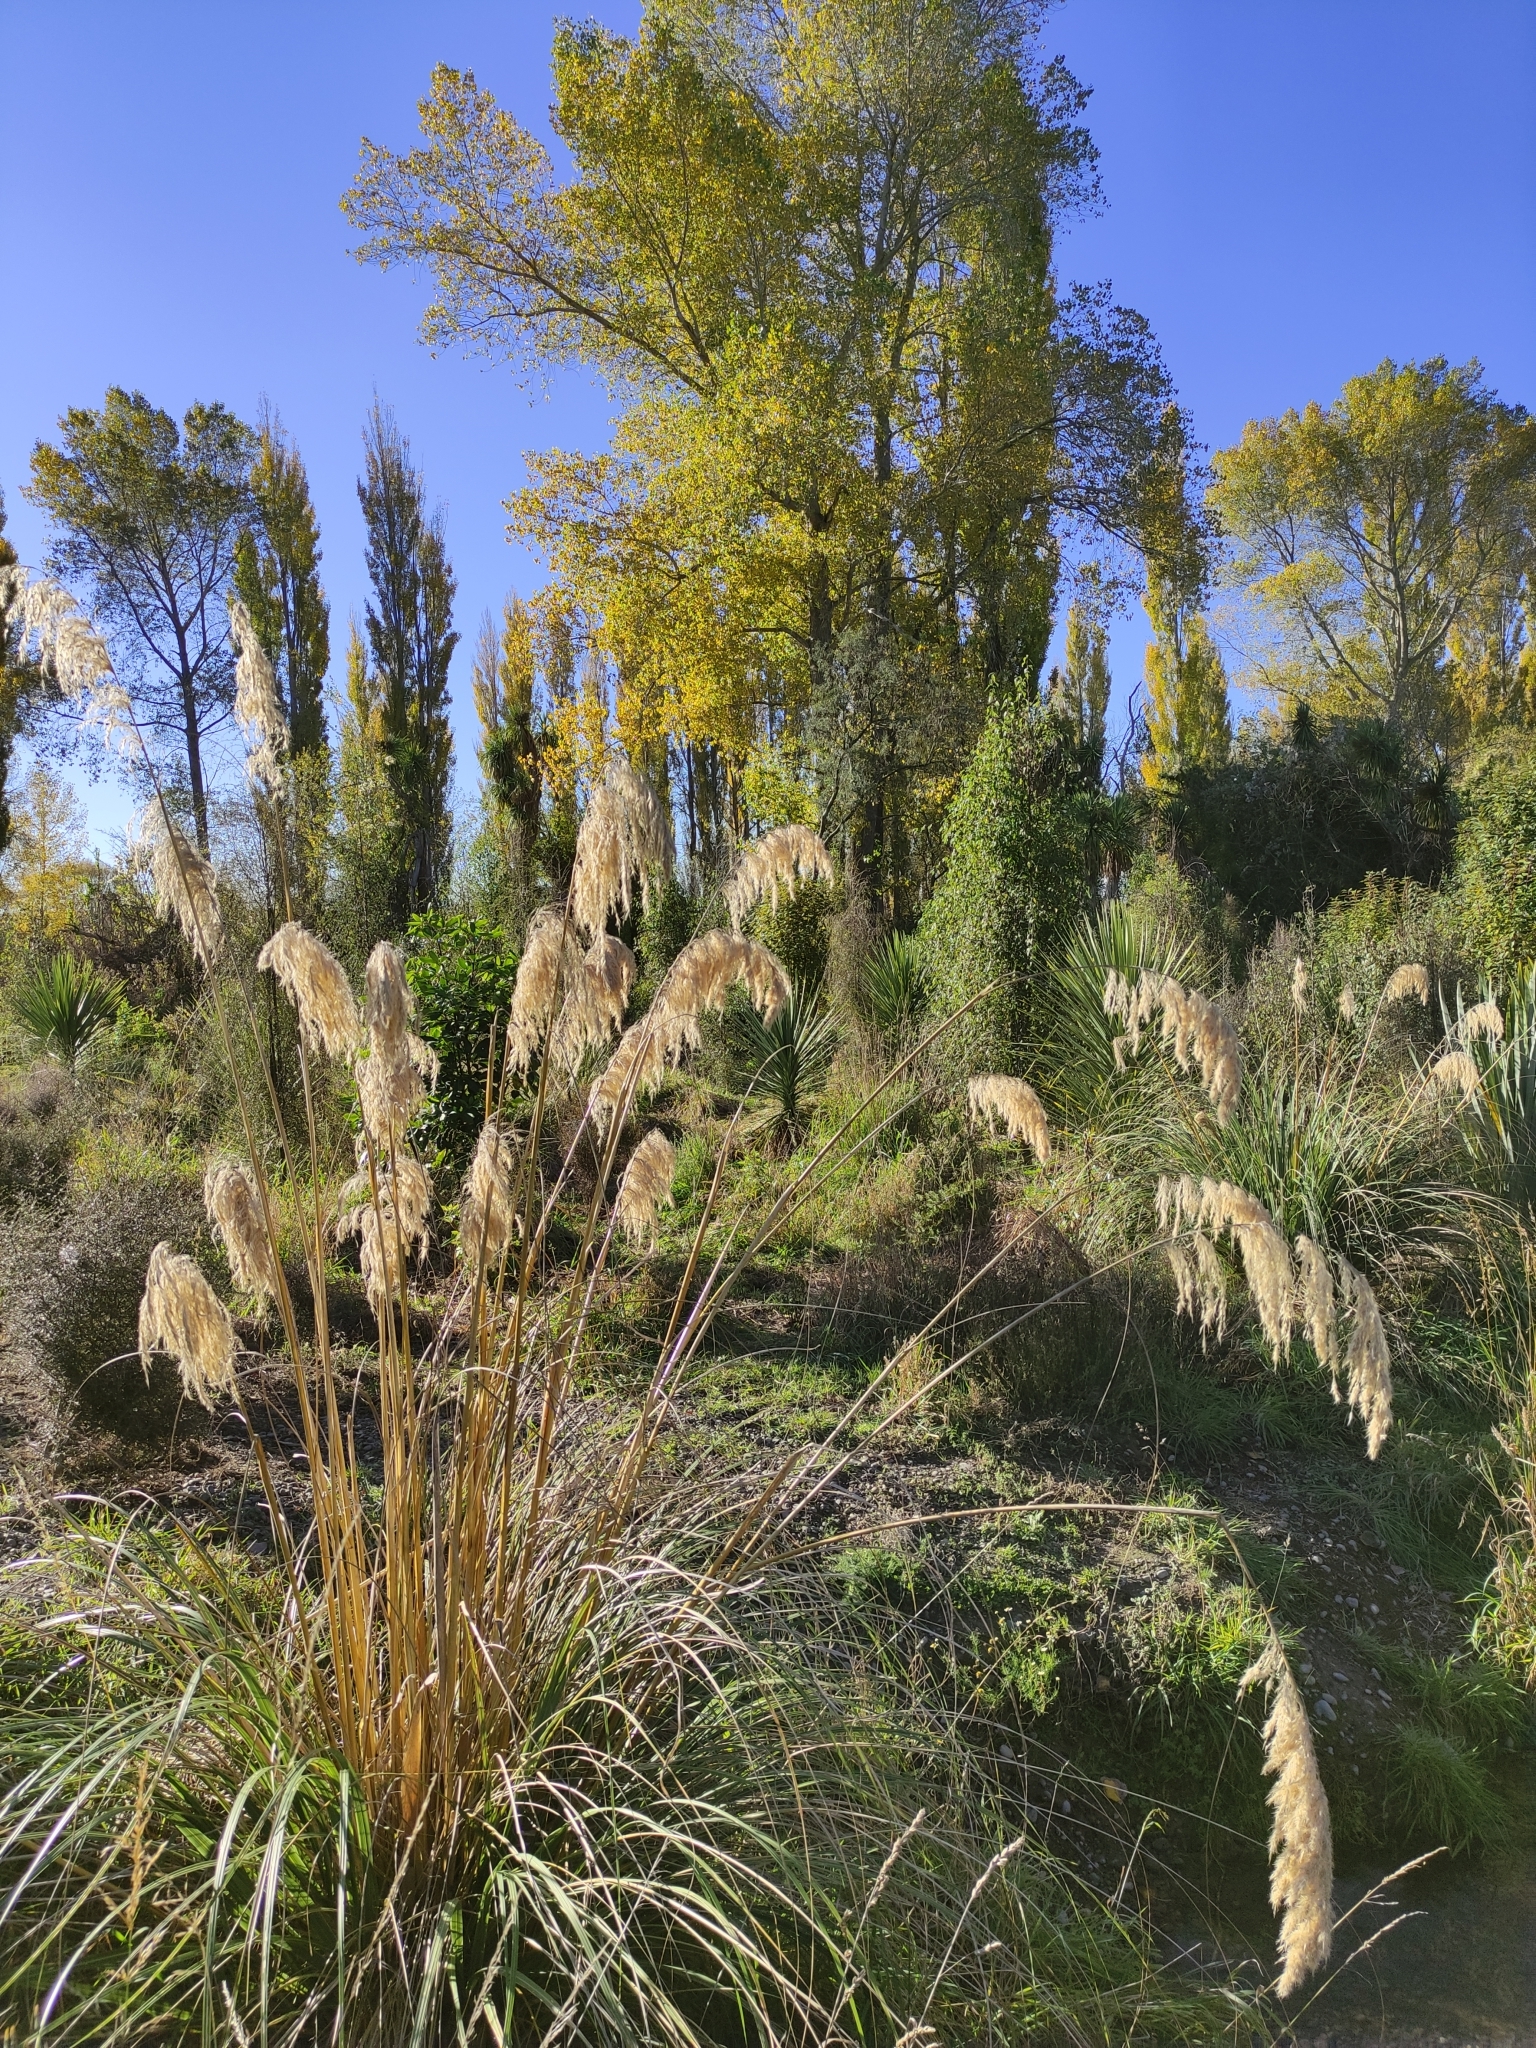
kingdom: Plantae
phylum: Tracheophyta
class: Liliopsida
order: Poales
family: Poaceae
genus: Cortaderia
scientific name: Cortaderia selloana
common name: Uruguayan pampas grass
